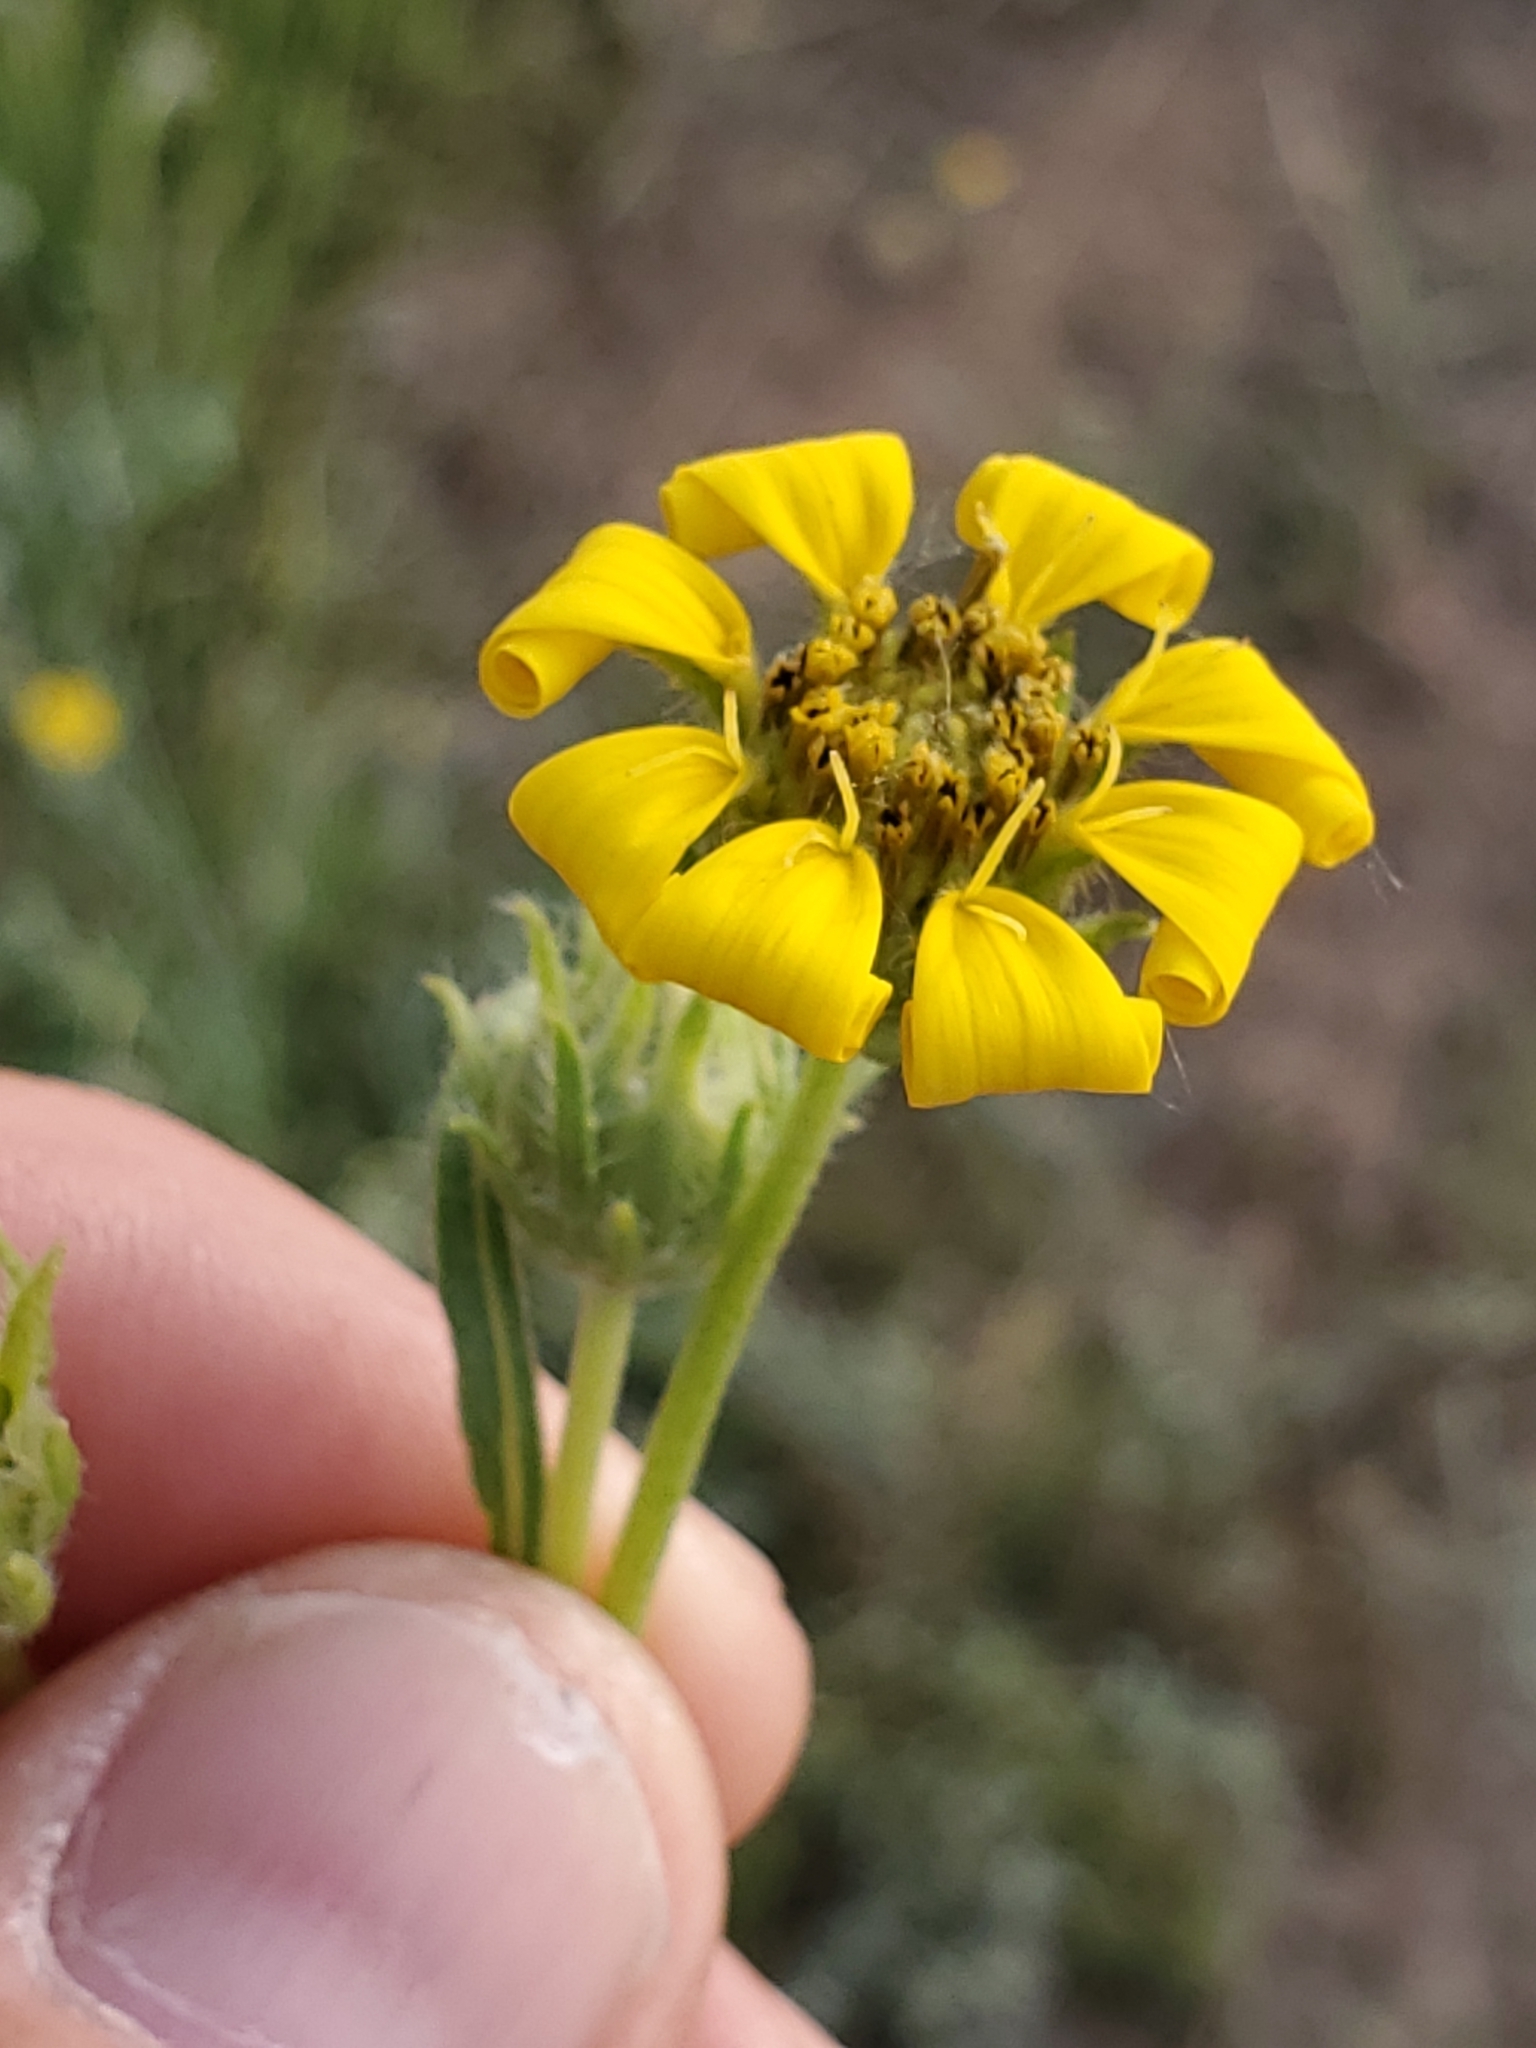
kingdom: Plantae
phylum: Tracheophyta
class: Magnoliopsida
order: Asterales
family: Asteraceae
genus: Engelmannia
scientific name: Engelmannia peristenia
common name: Engelmann's daisy
